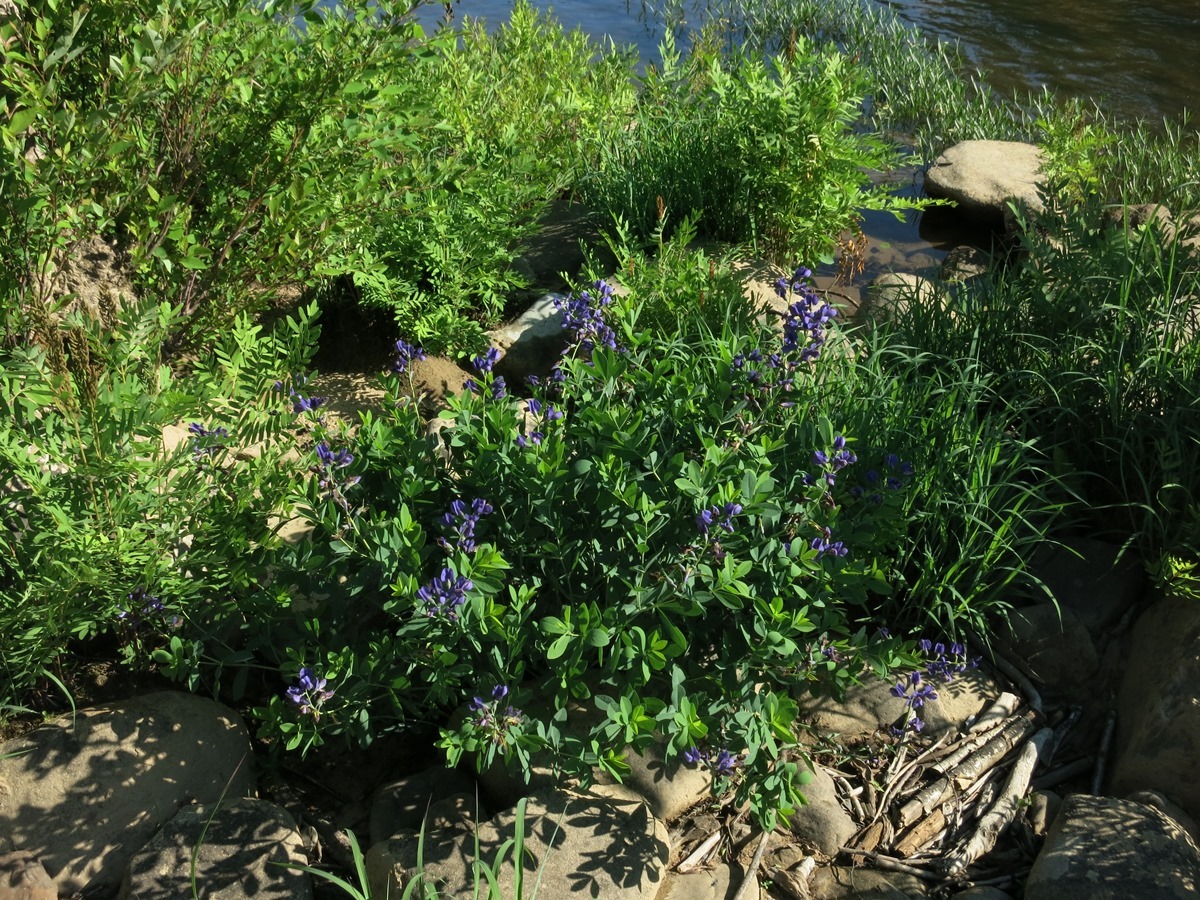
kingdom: Plantae
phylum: Tracheophyta
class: Magnoliopsida
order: Fabales
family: Fabaceae
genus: Baptisia
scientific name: Baptisia australis
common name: Blue false indigo
